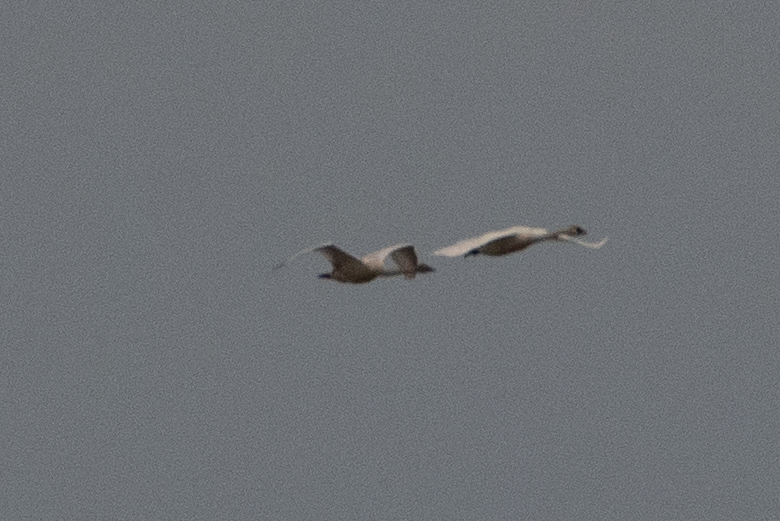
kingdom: Animalia
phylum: Chordata
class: Aves
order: Anseriformes
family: Anatidae
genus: Cygnus
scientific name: Cygnus columbianus
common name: Tundra swan
